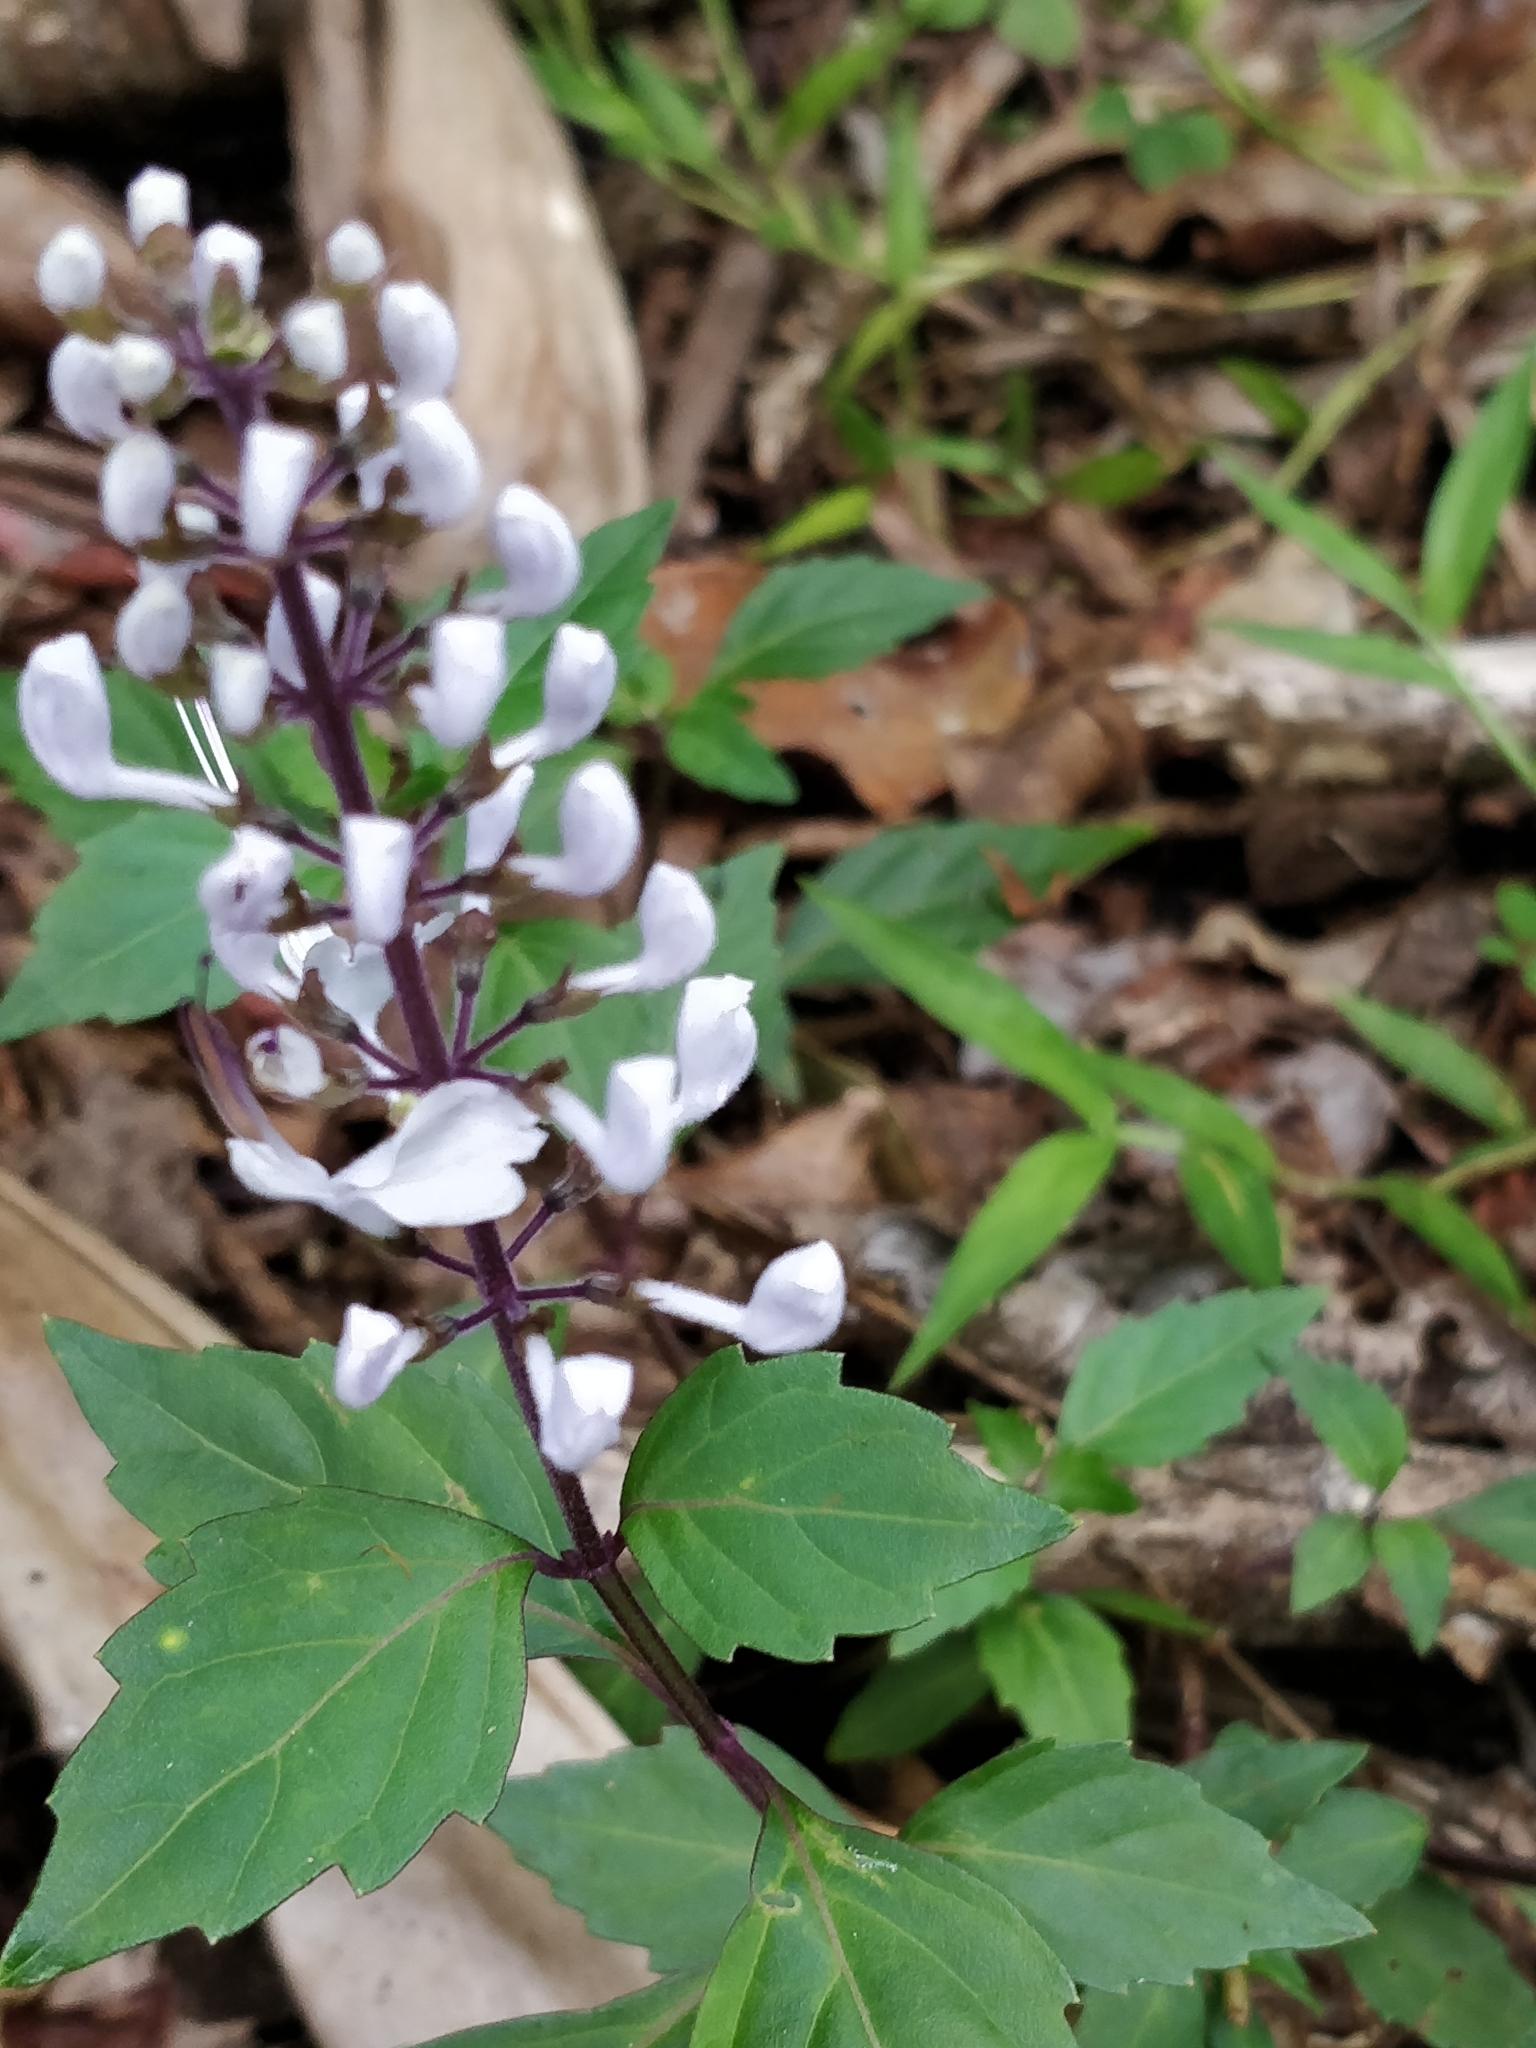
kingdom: Plantae
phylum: Tracheophyta
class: Magnoliopsida
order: Lamiales
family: Lamiaceae
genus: Orthosiphon
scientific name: Orthosiphon aristatus
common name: Whiskerplant
